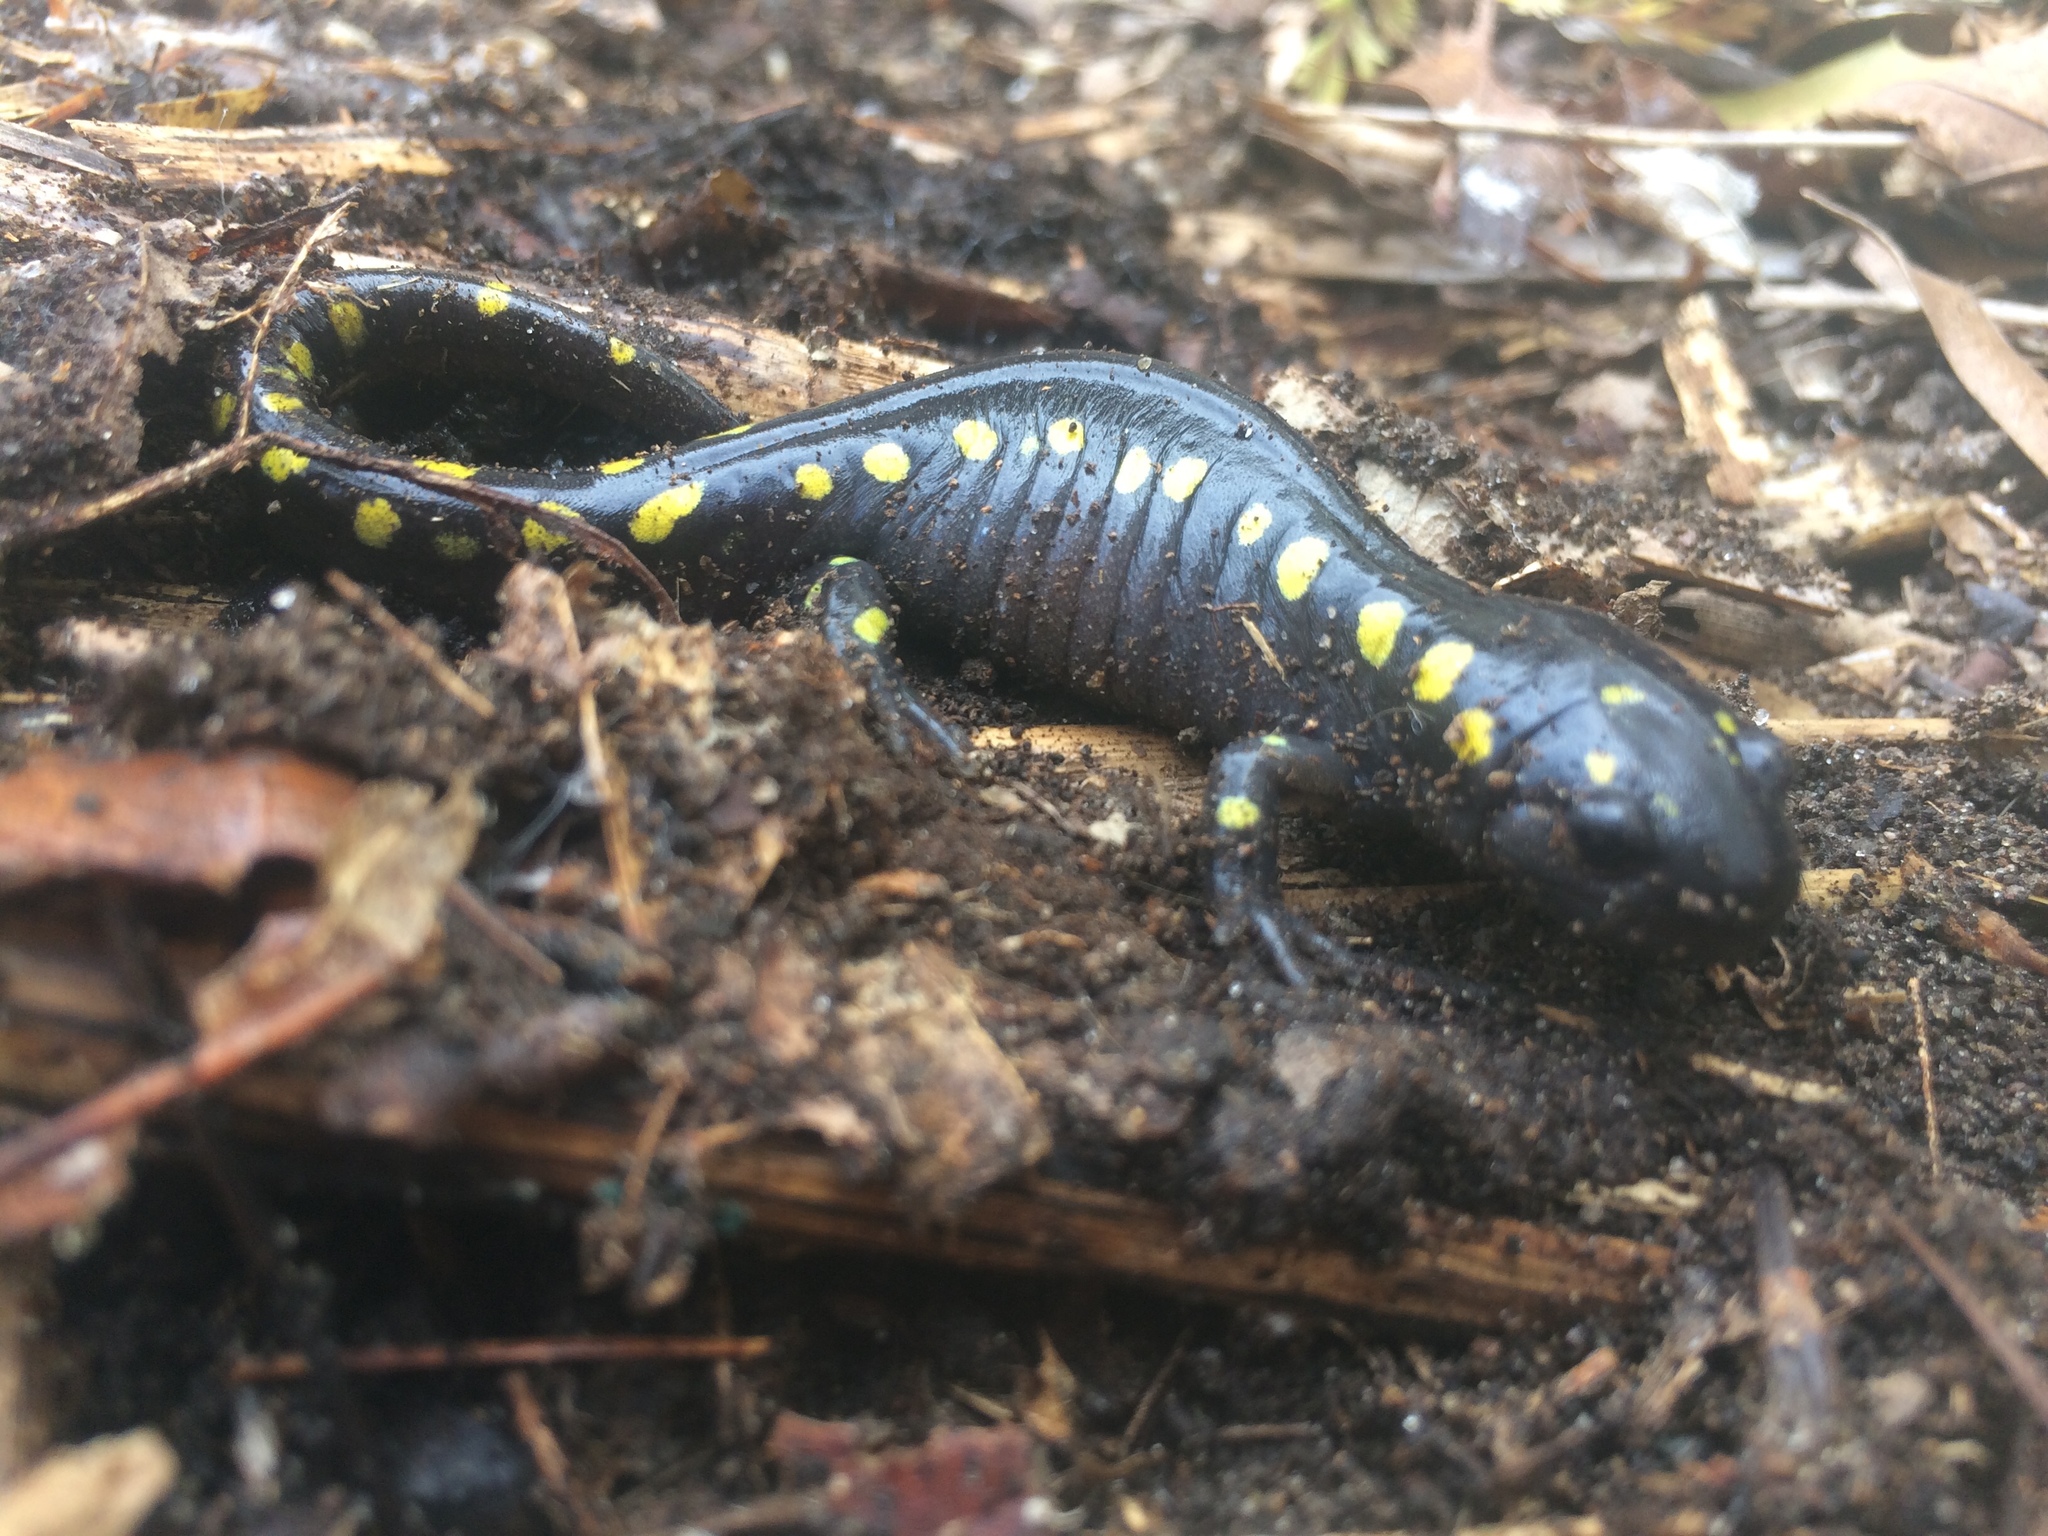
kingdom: Animalia
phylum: Chordata
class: Amphibia
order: Caudata
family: Ambystomatidae
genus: Ambystoma
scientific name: Ambystoma maculatum
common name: Spotted salamander
